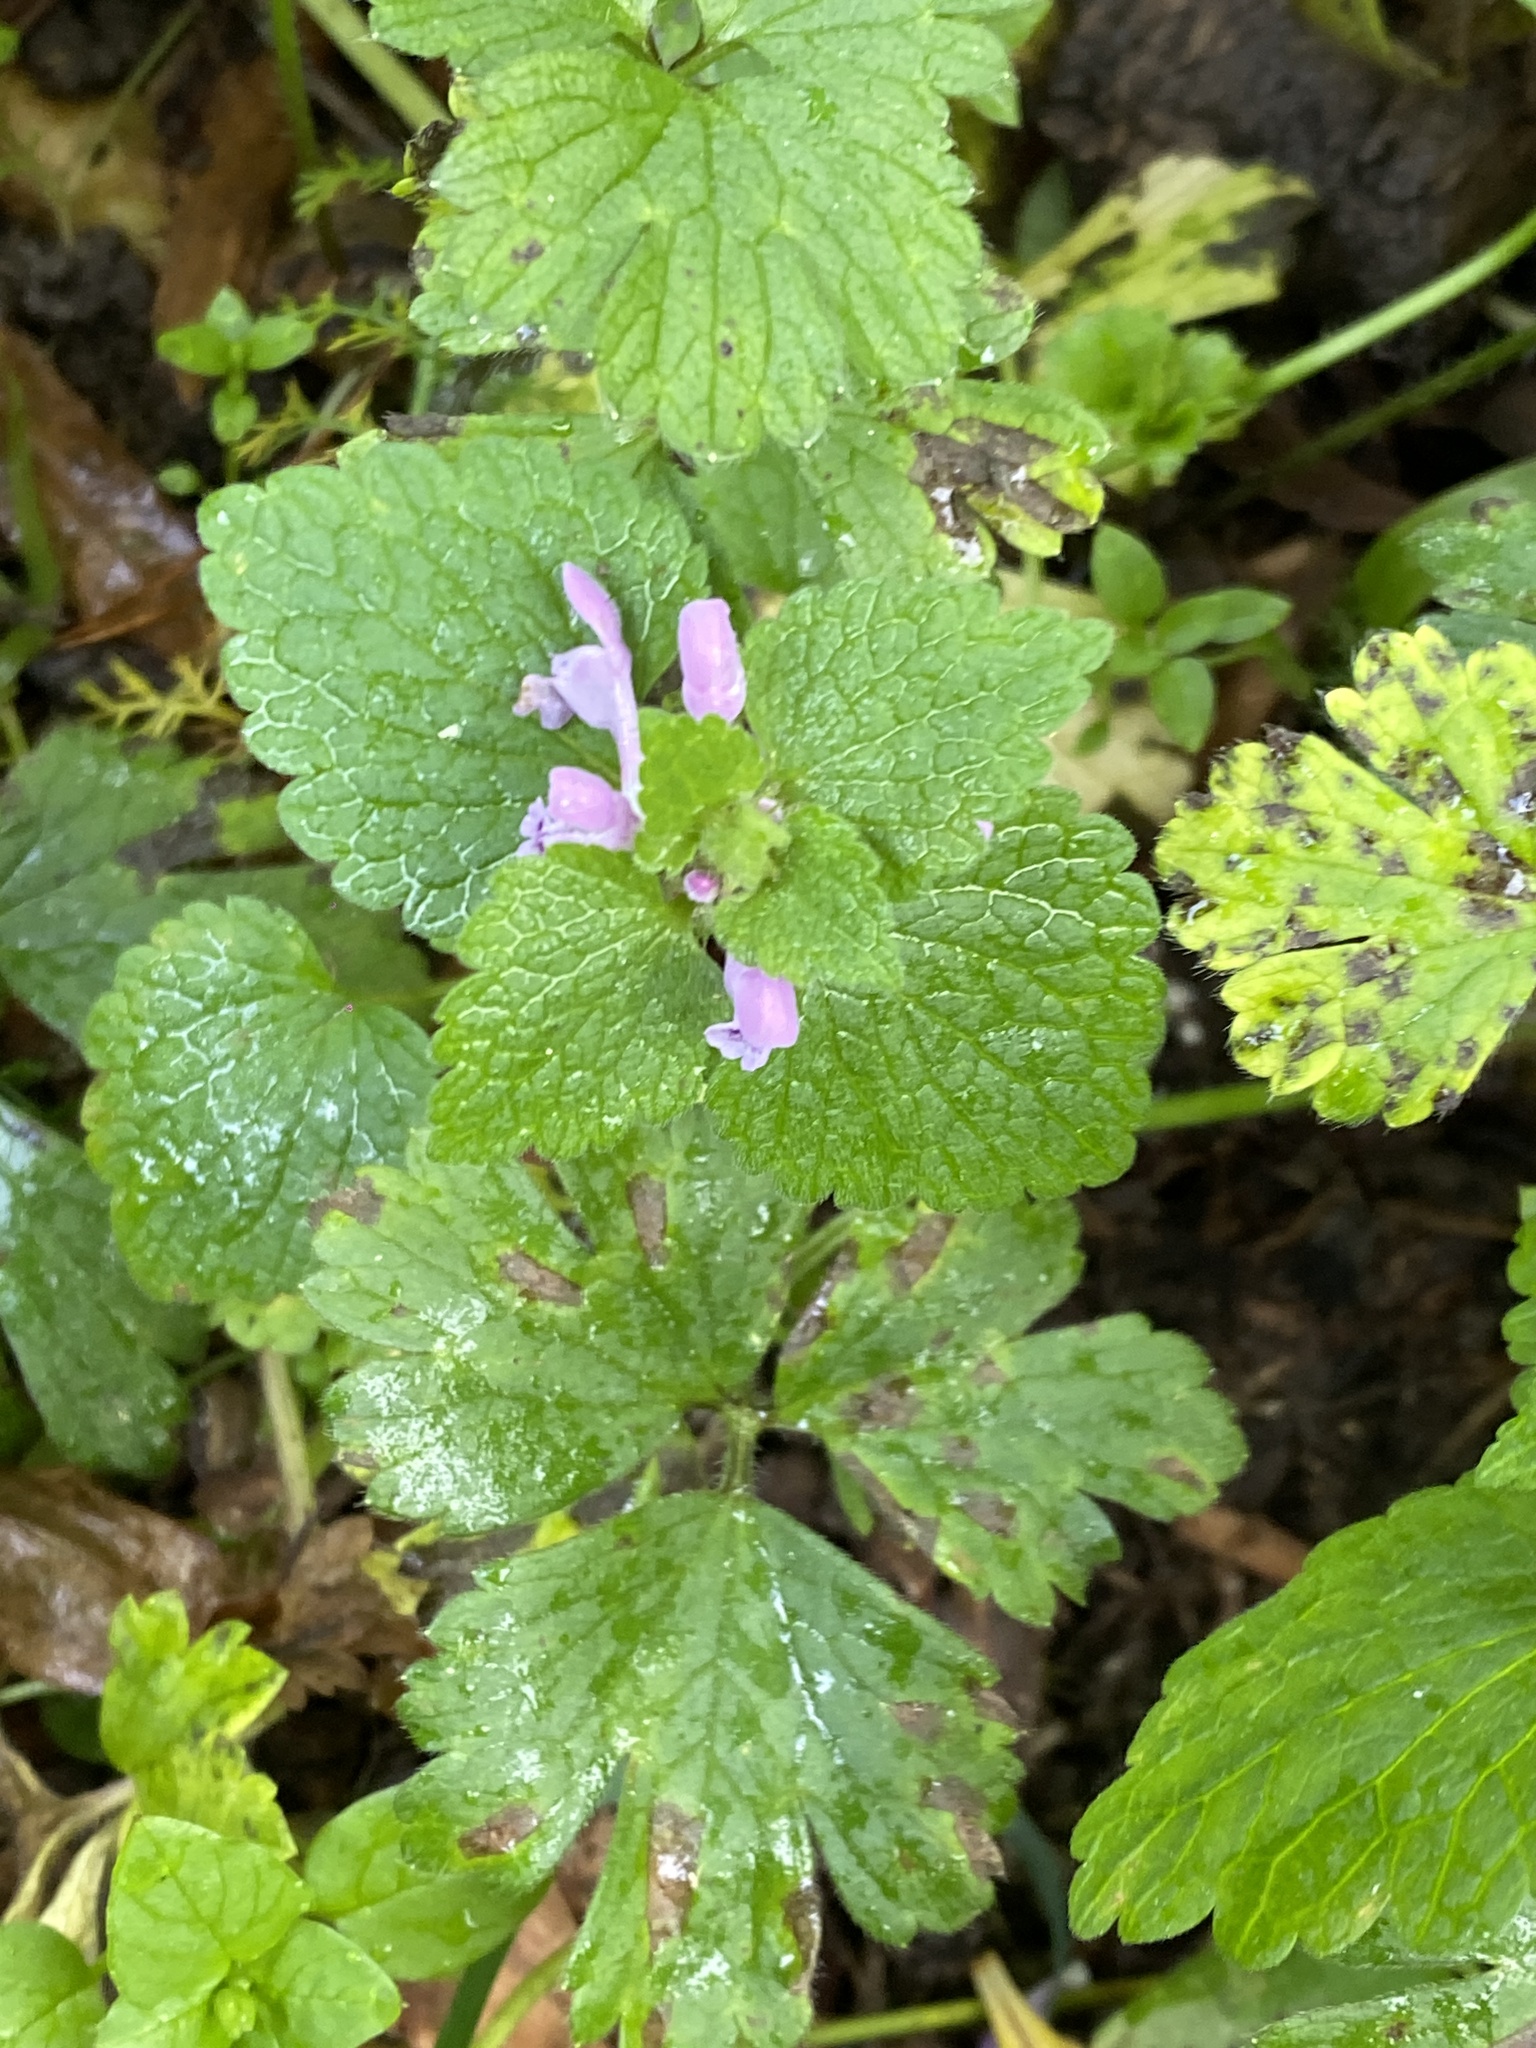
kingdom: Plantae
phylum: Tracheophyta
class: Magnoliopsida
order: Lamiales
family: Lamiaceae
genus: Lamium
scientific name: Lamium purpureum
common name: Red dead-nettle
